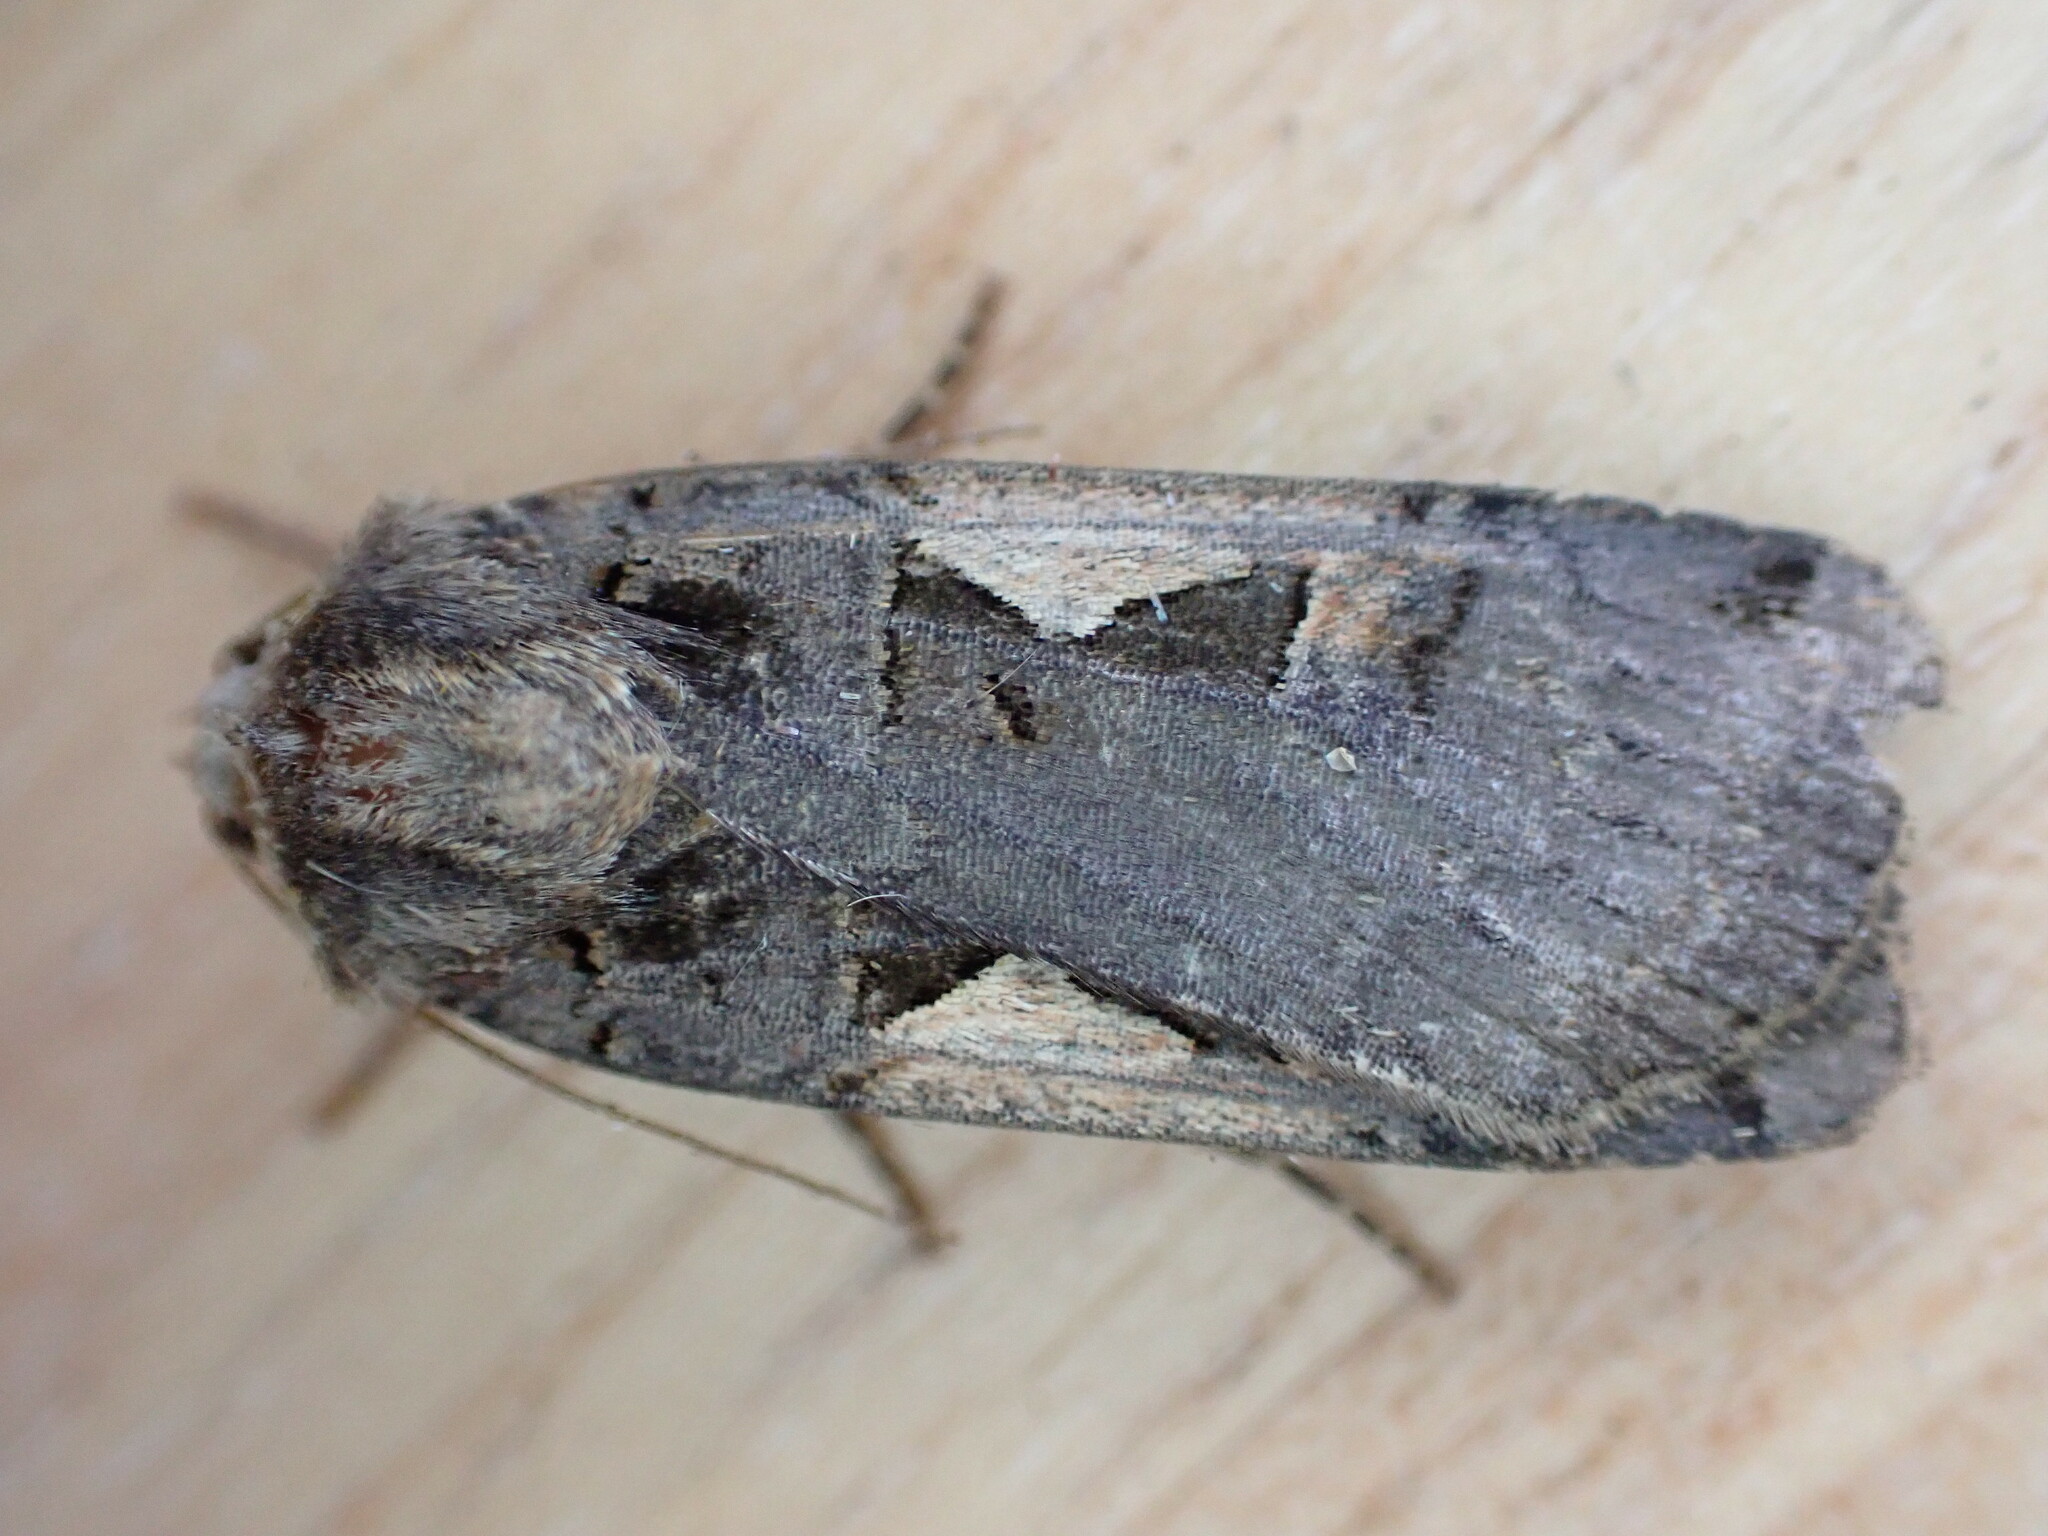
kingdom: Animalia
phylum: Arthropoda
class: Insecta
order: Lepidoptera
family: Noctuidae
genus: Xestia
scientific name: Xestia c-nigrum
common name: Setaceous hebrew character
